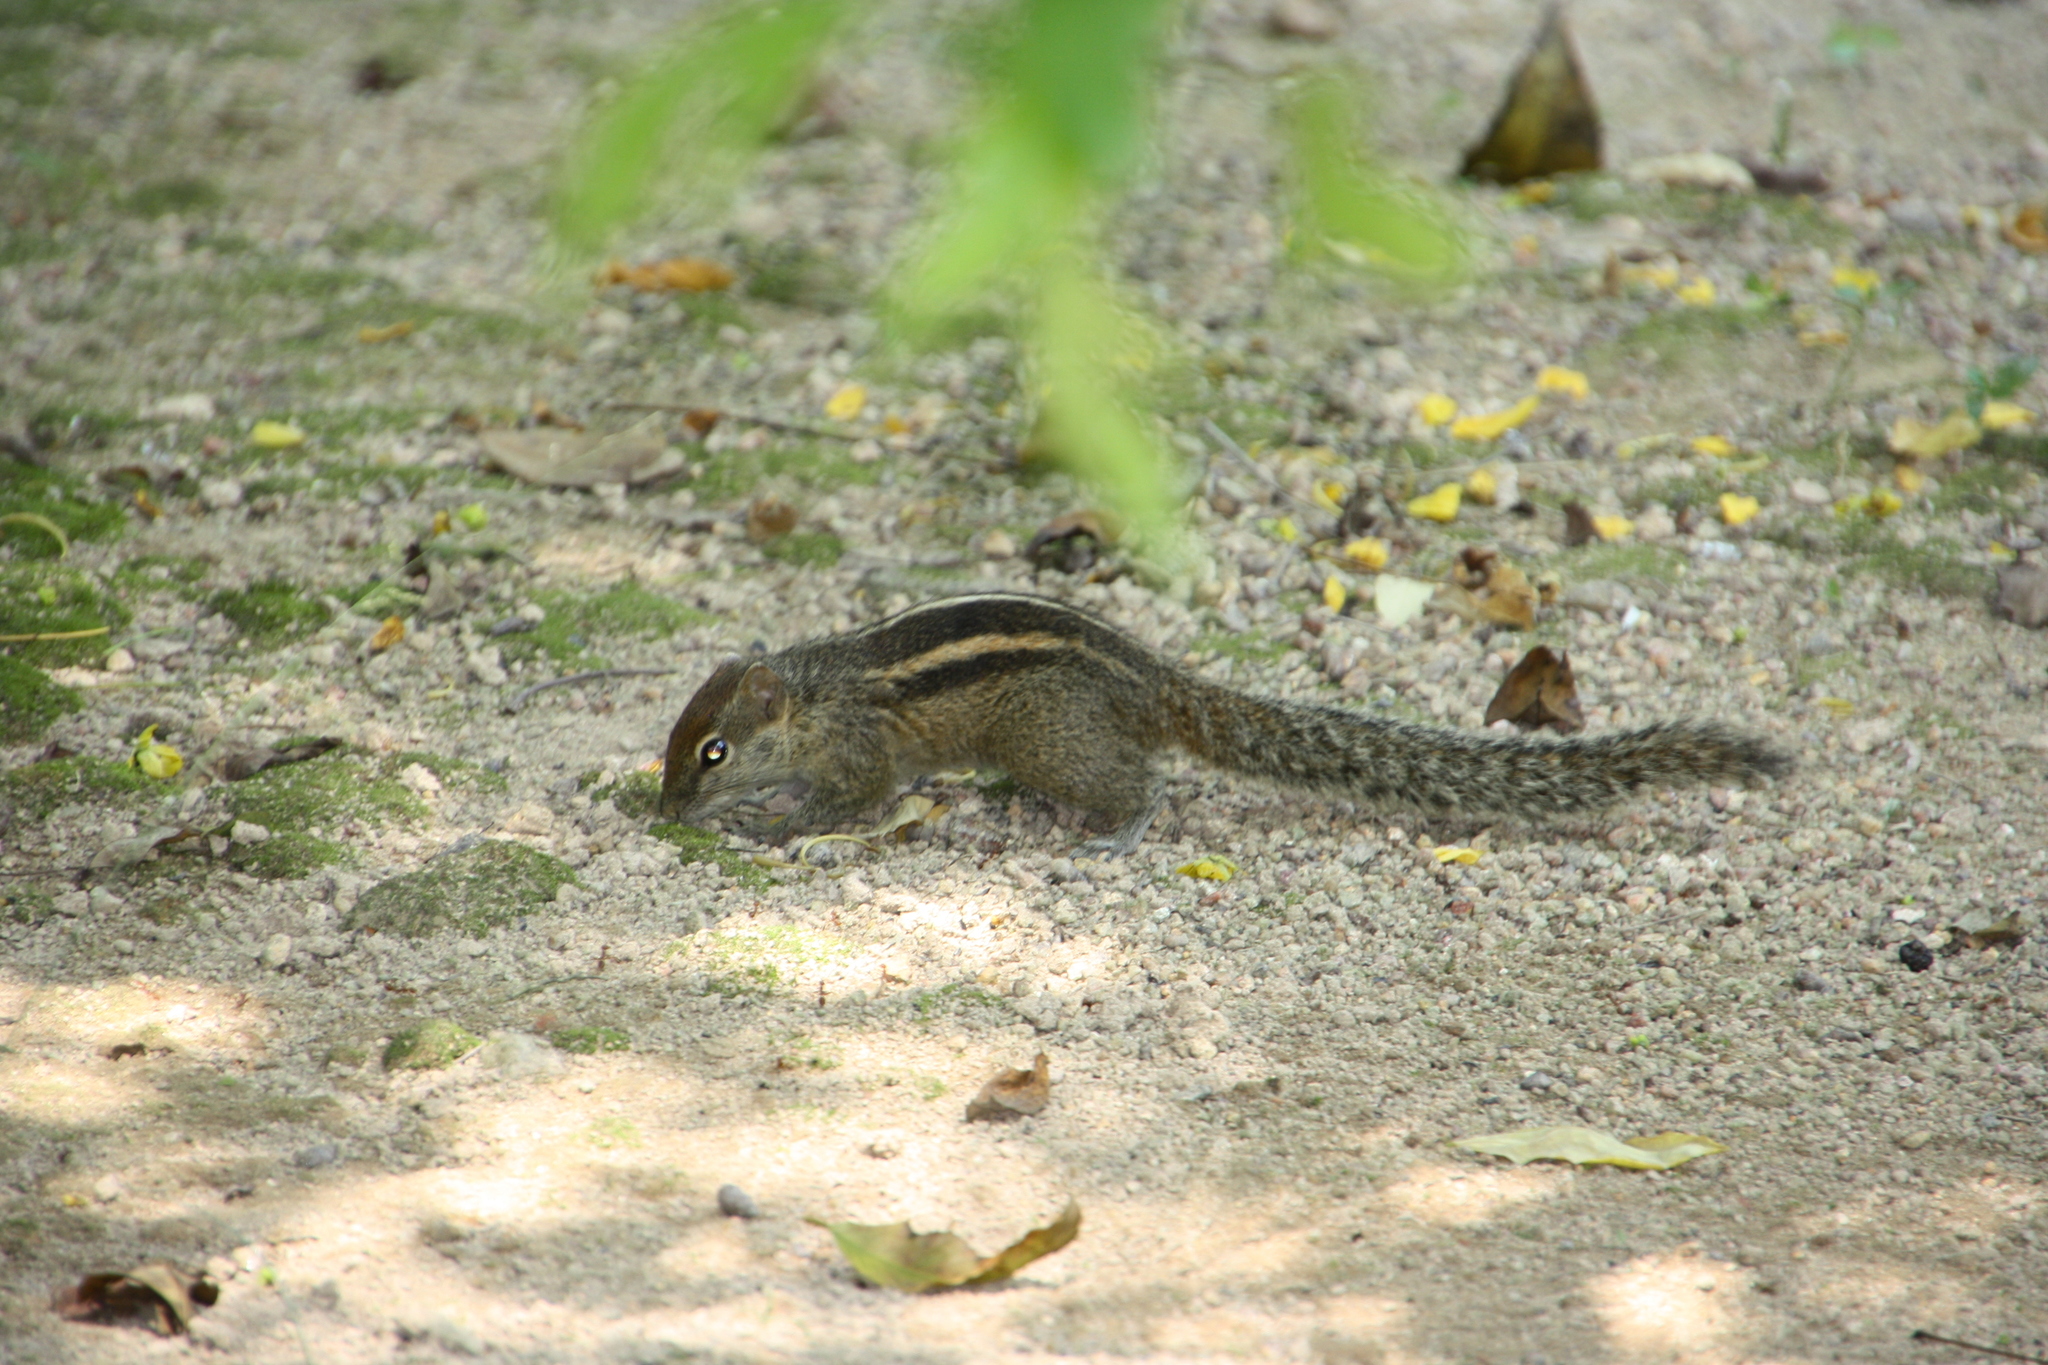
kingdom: Animalia
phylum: Chordata
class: Mammalia
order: Rodentia
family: Sciuridae
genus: Funambulus
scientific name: Funambulus palmarum
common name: Indian palm squirrel
